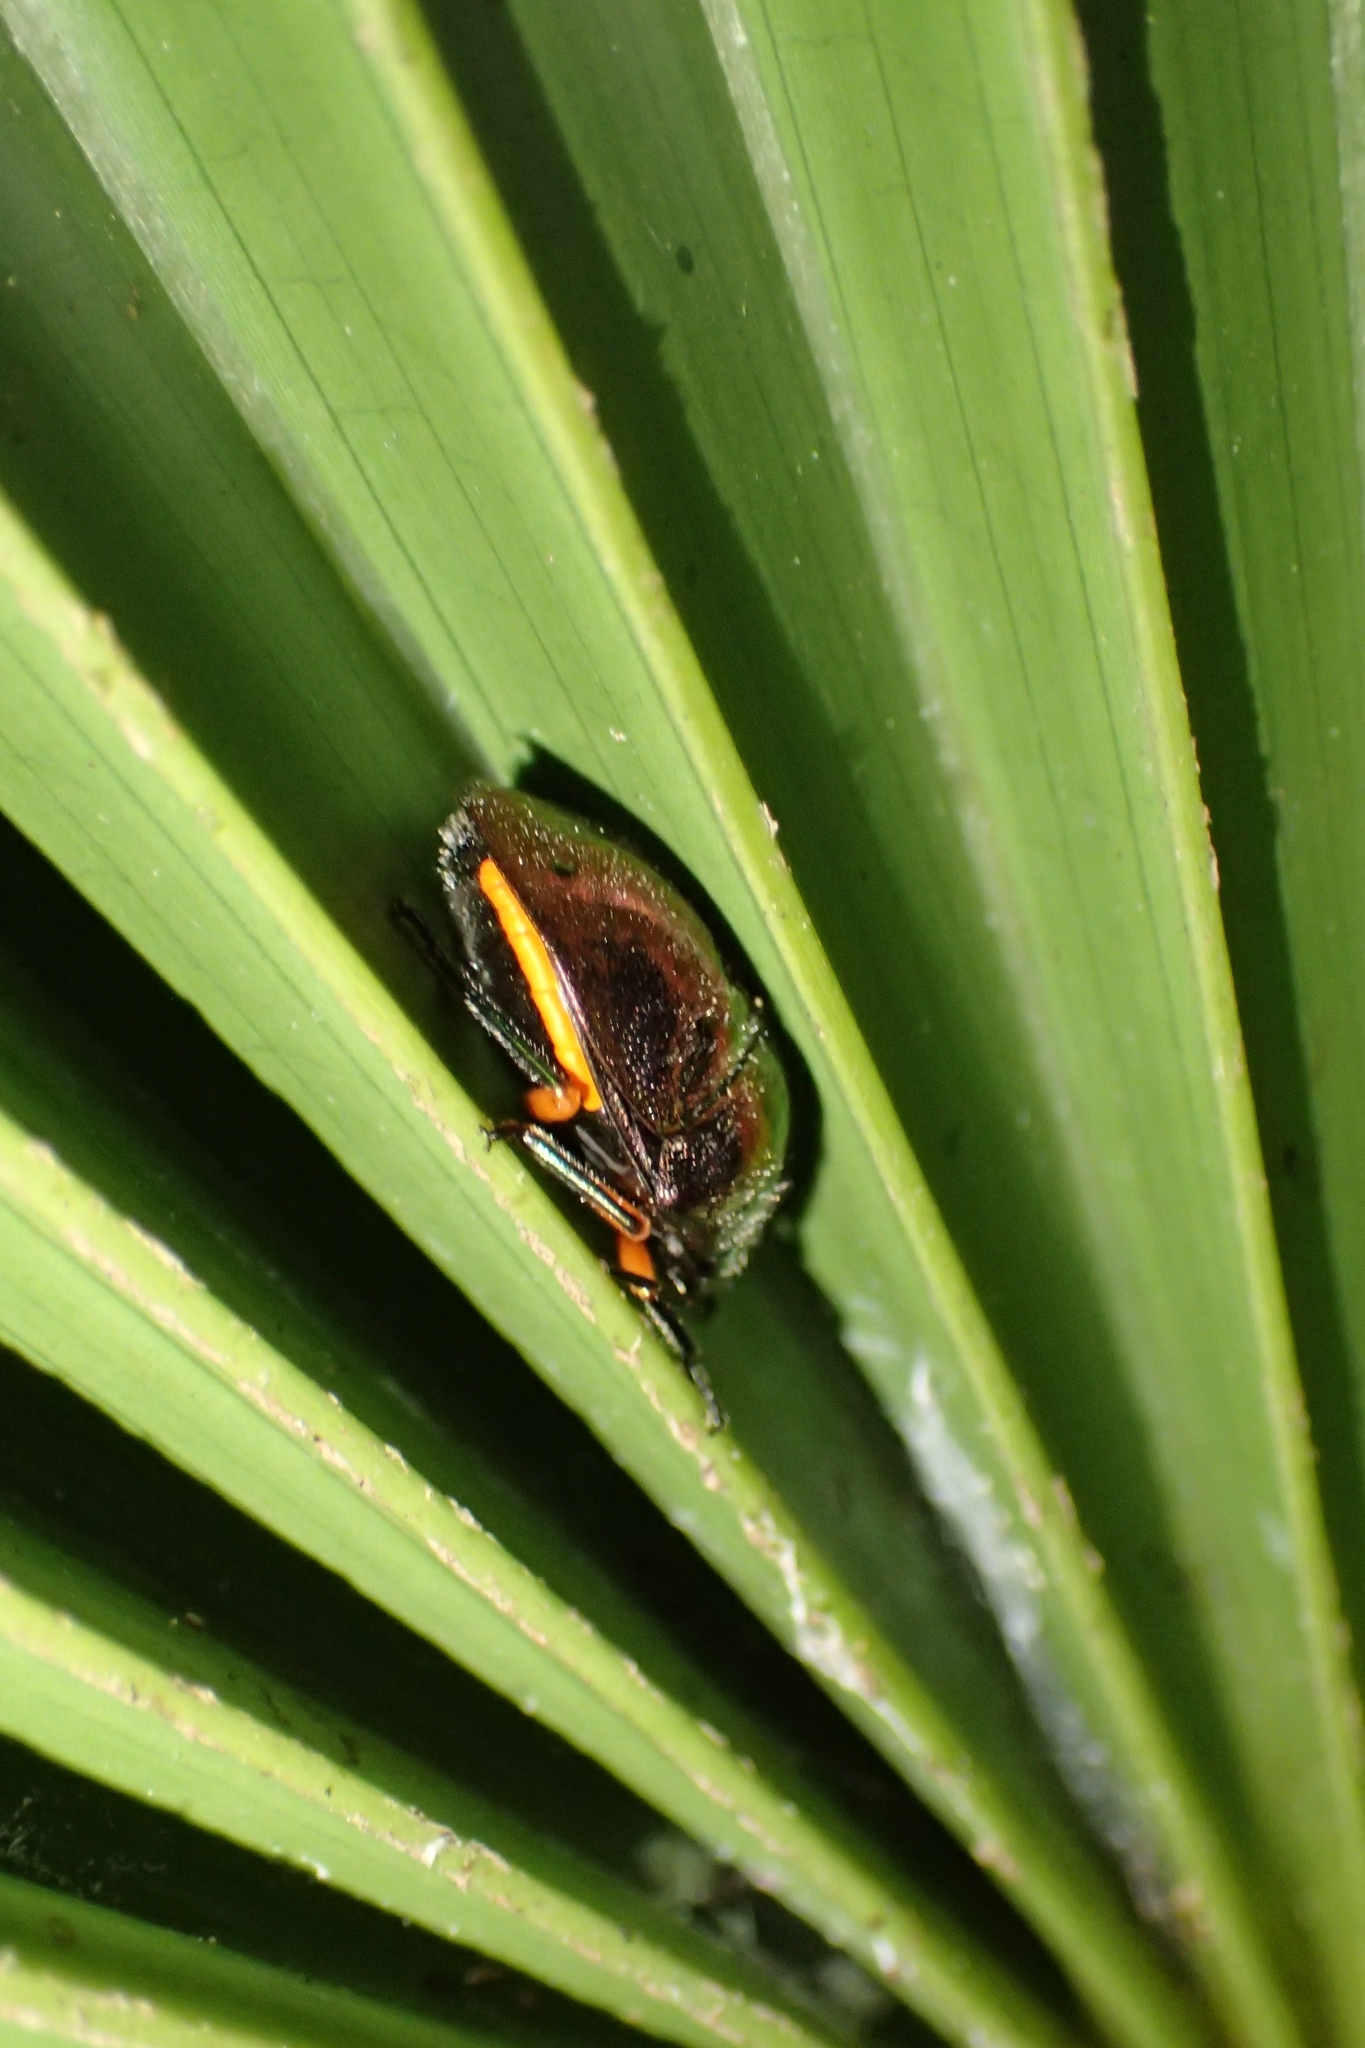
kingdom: Animalia
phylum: Arthropoda
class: Insecta
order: Hemiptera
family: Scutelleridae
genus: Lampromicra
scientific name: Lampromicra
